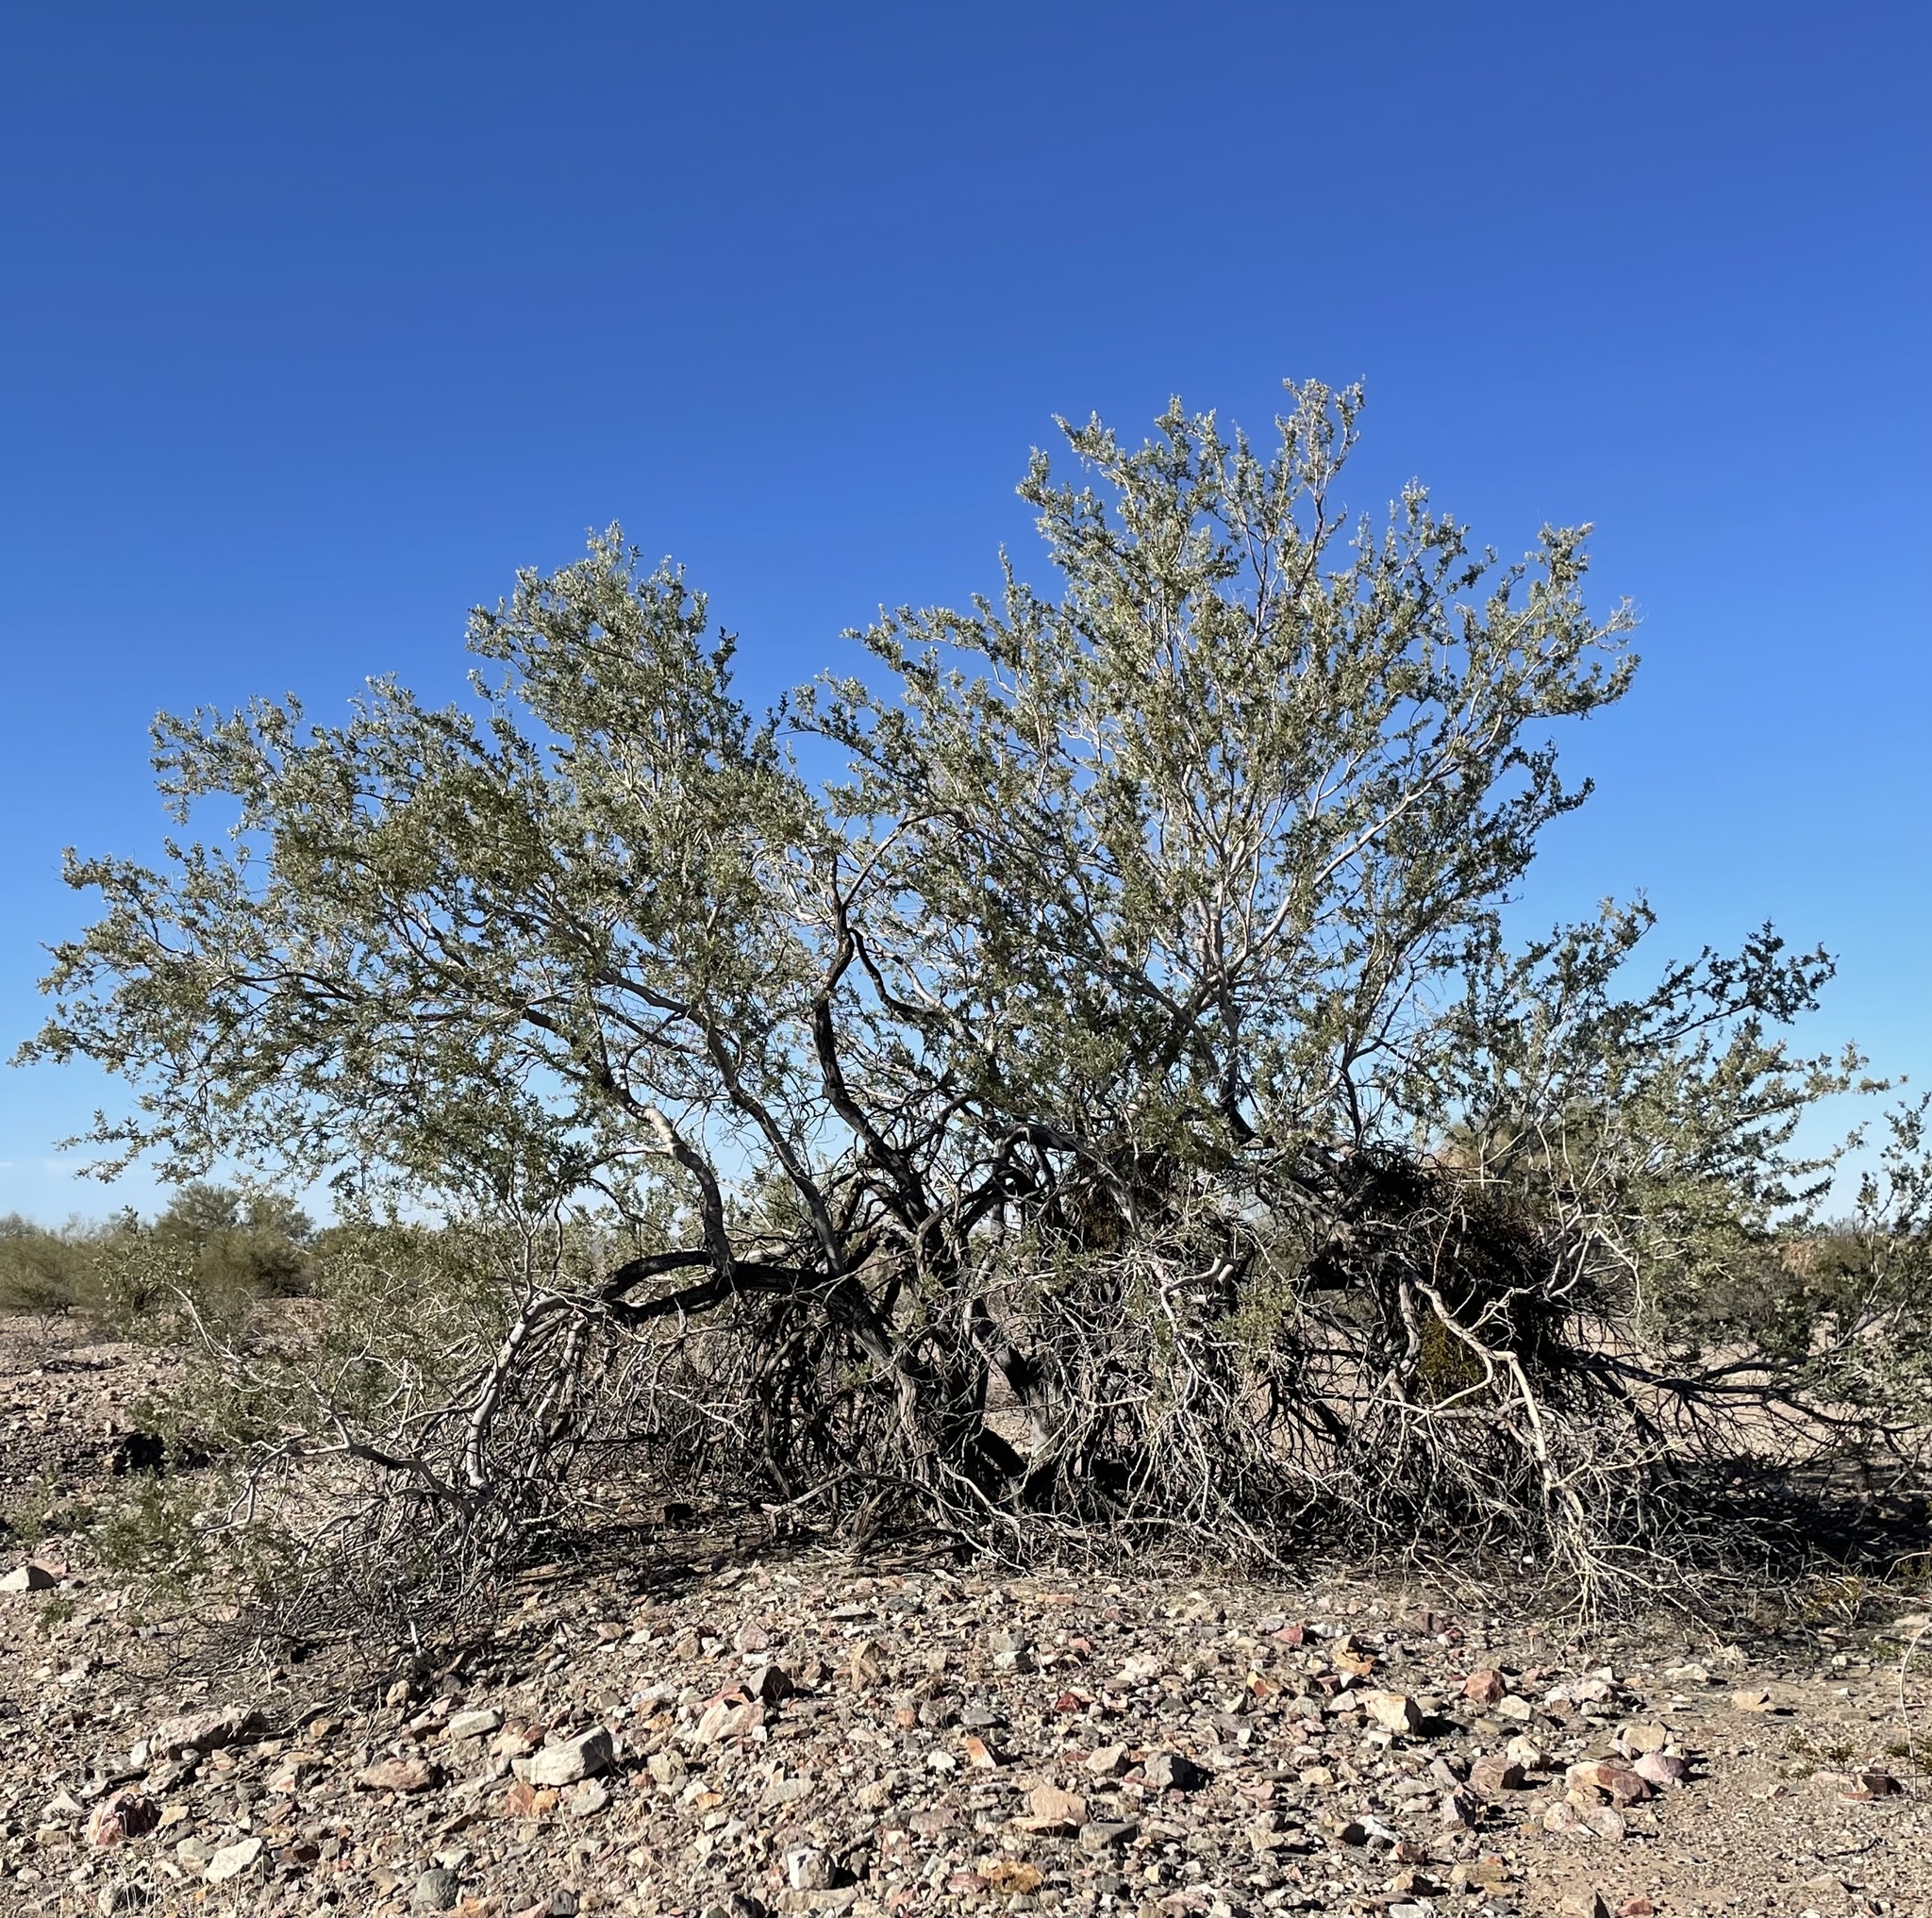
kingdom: Plantae
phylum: Tracheophyta
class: Magnoliopsida
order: Fabales
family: Fabaceae
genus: Olneya
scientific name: Olneya tesota
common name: Desert ironwood
